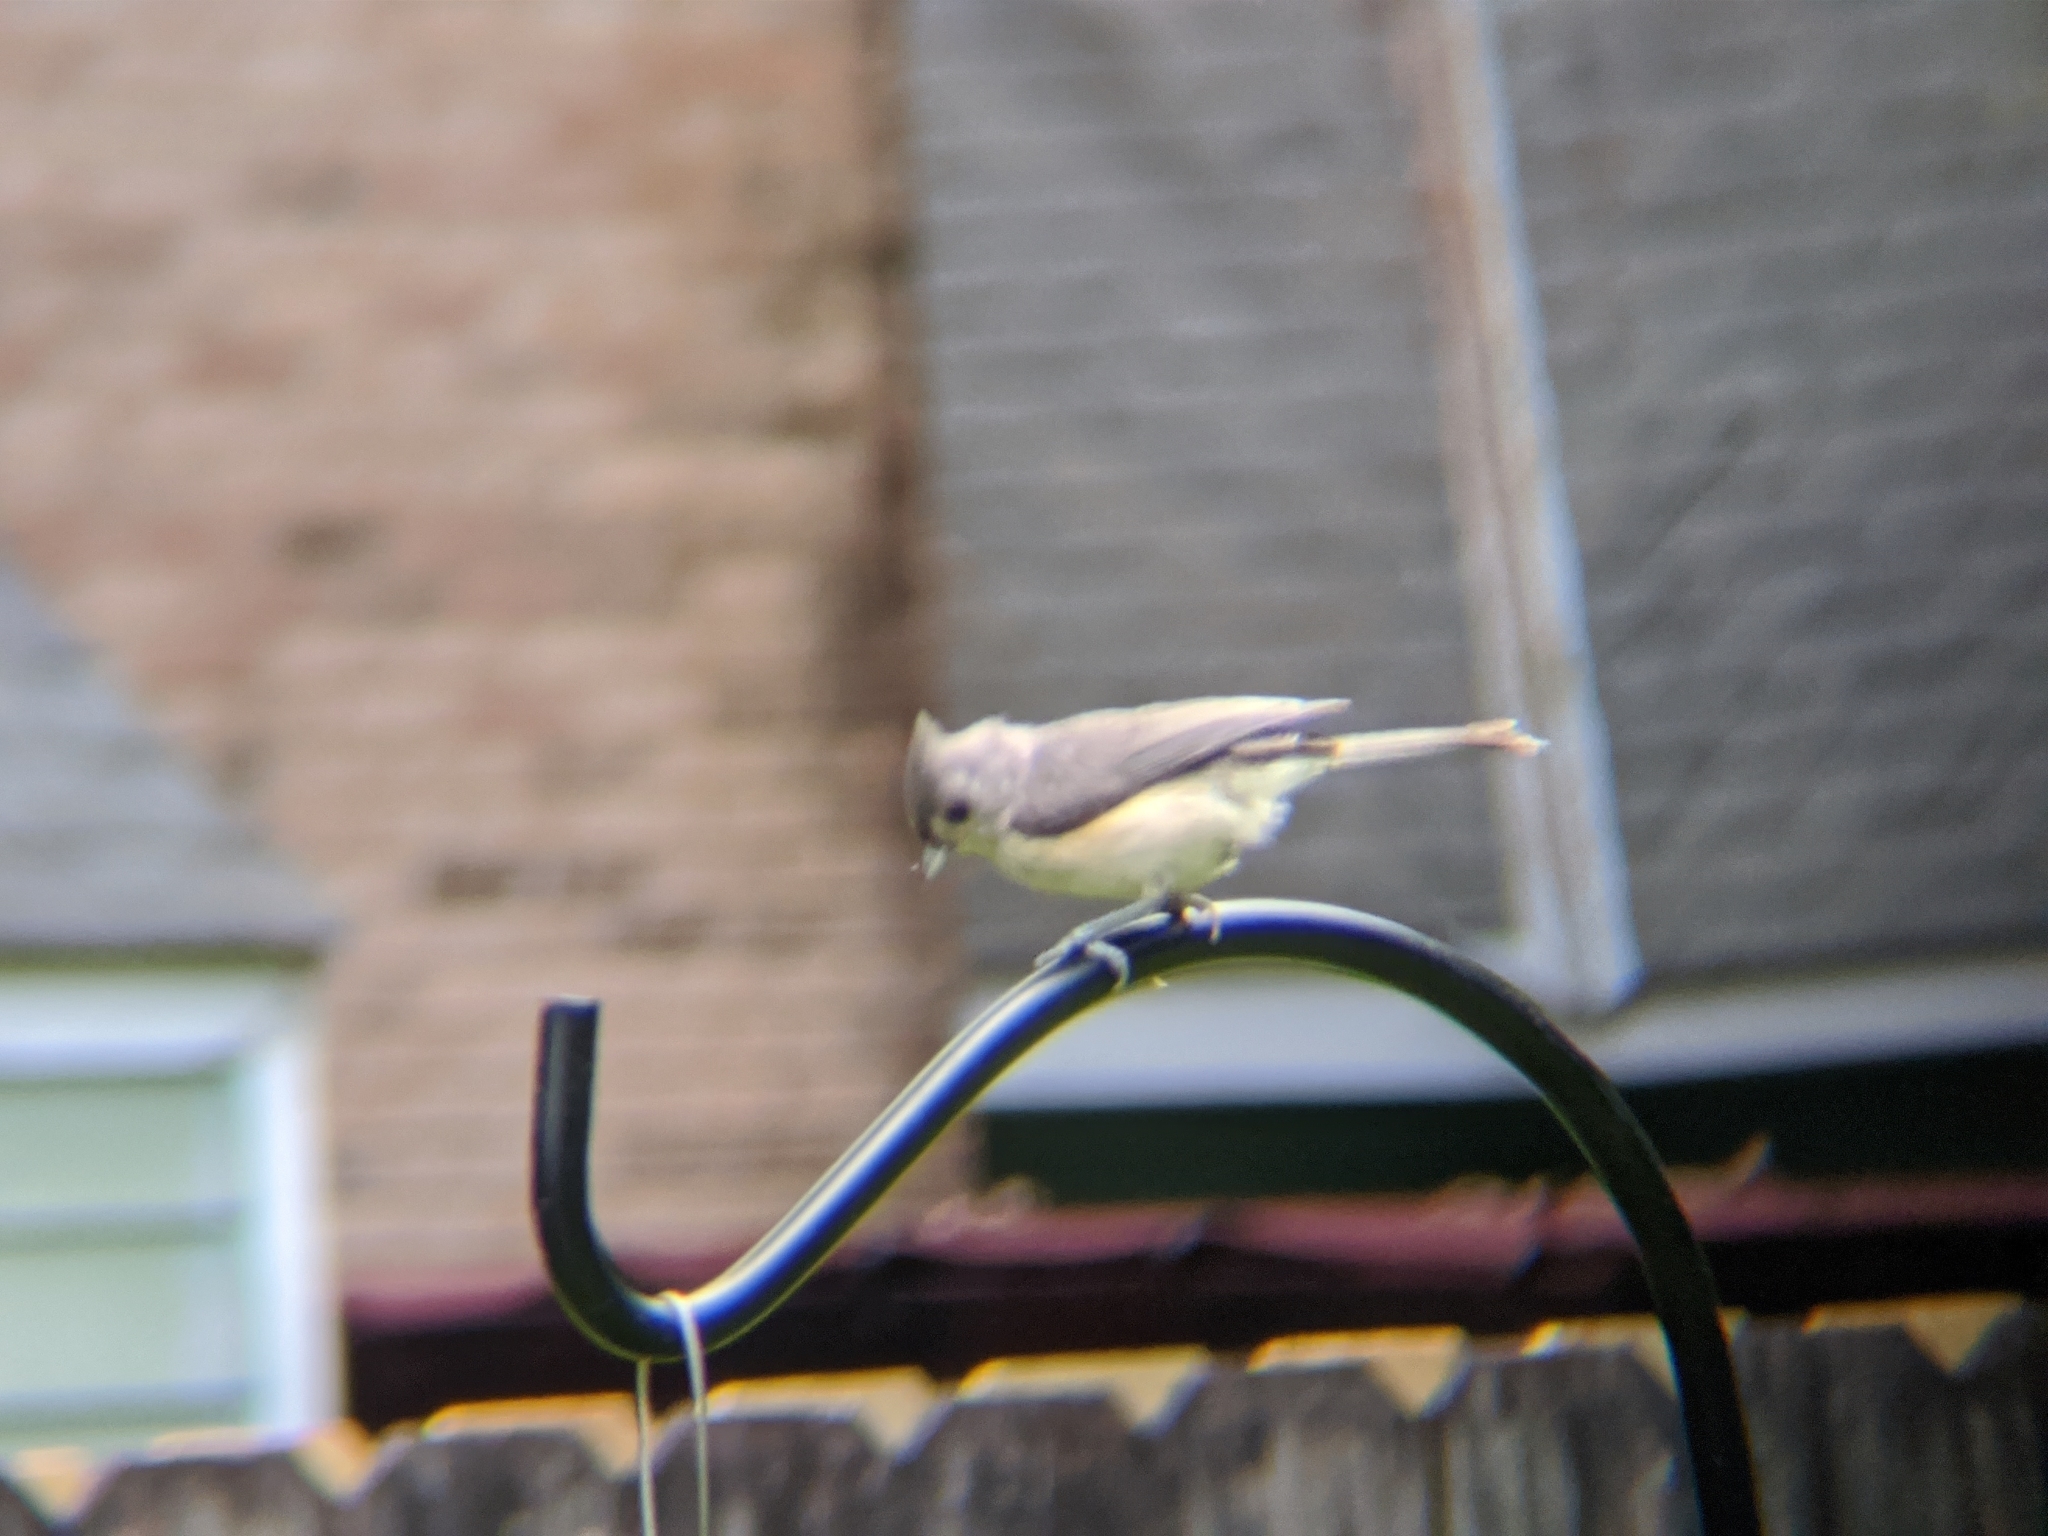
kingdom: Animalia
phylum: Chordata
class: Aves
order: Passeriformes
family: Paridae
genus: Baeolophus
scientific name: Baeolophus bicolor
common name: Tufted titmouse
